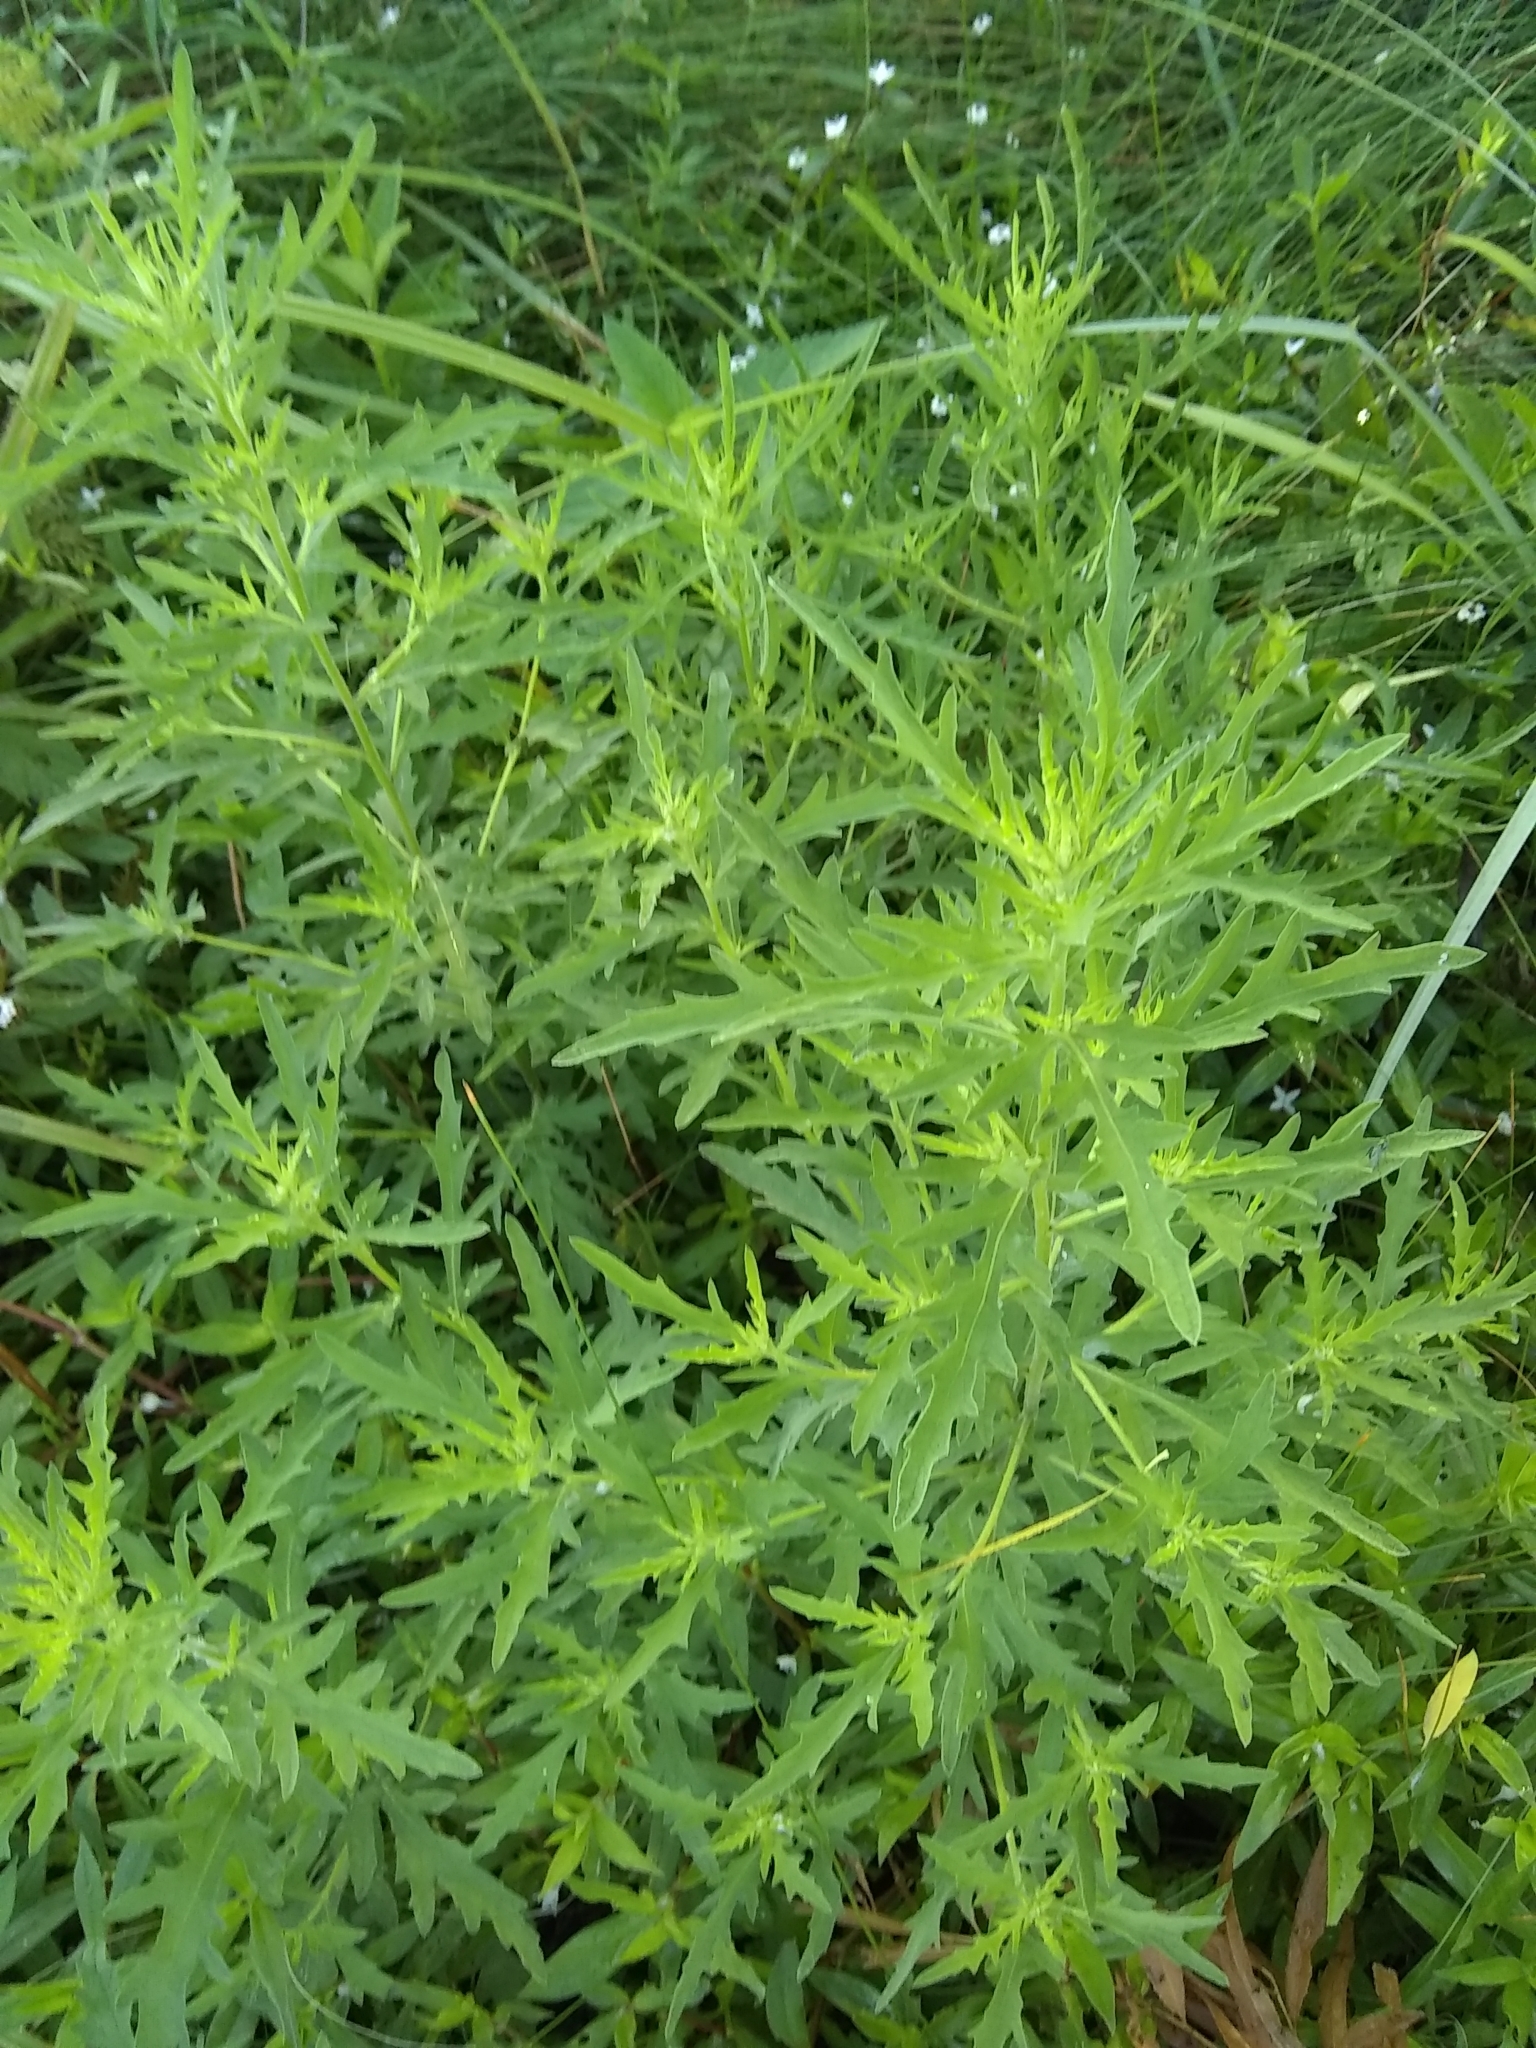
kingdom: Plantae
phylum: Tracheophyta
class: Magnoliopsida
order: Asterales
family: Asteraceae
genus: Ambrosia
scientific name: Ambrosia psilostachya
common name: Perennial ragweed
